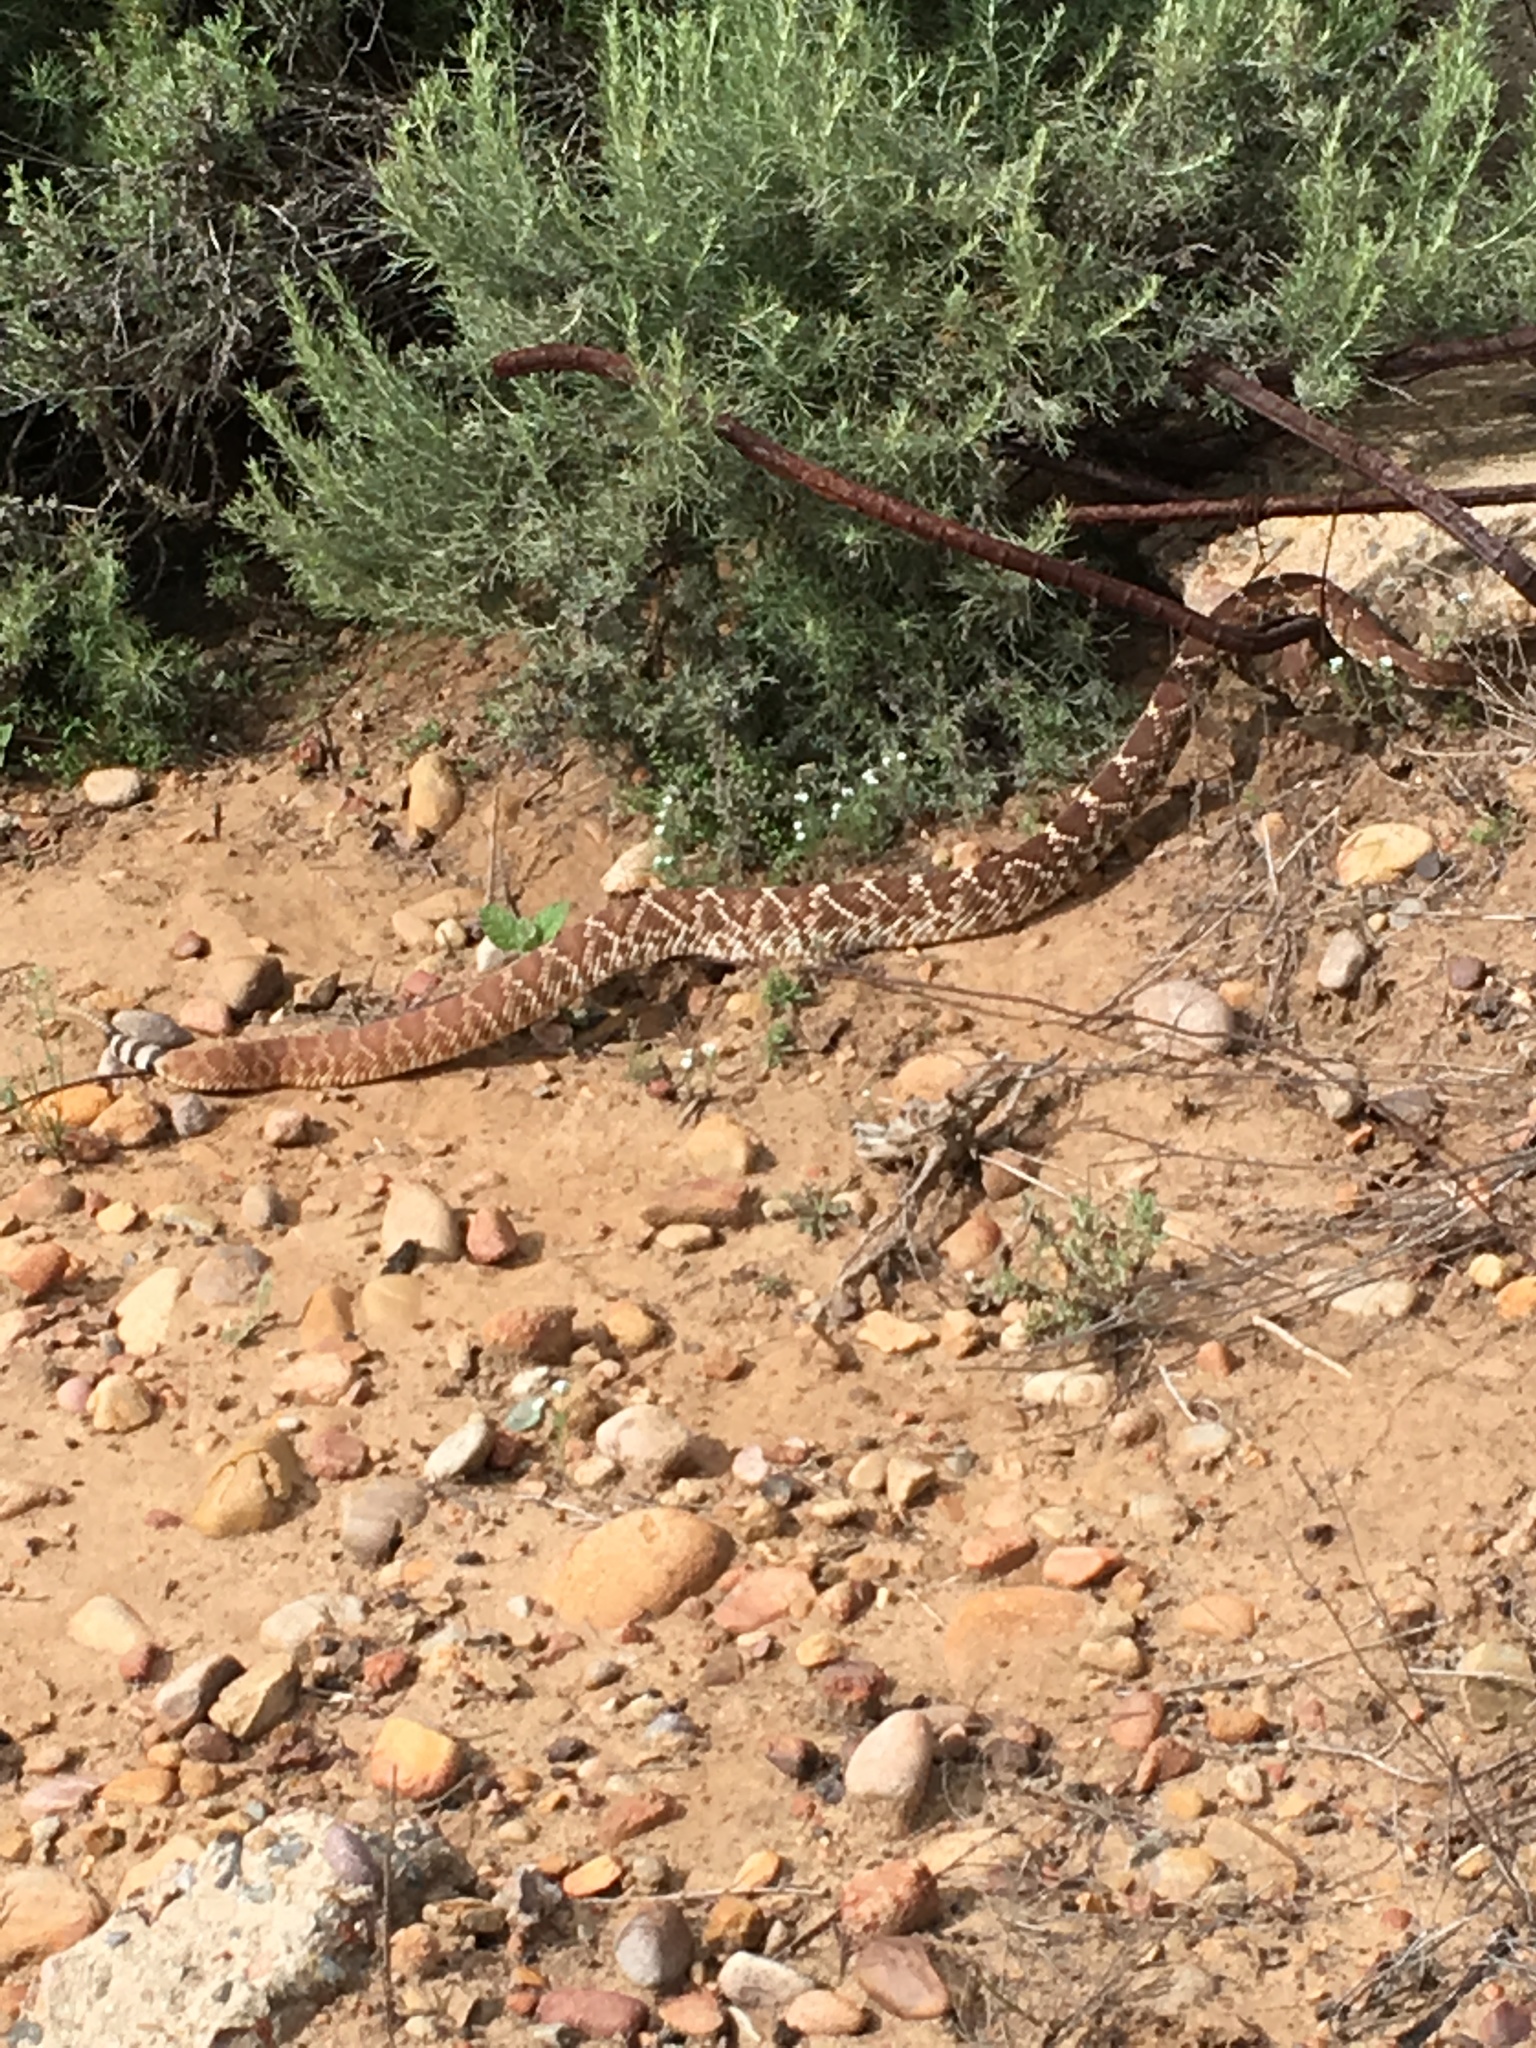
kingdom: Animalia
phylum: Chordata
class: Squamata
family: Viperidae
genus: Crotalus
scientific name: Crotalus ruber
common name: Red diamond rattlesnake
